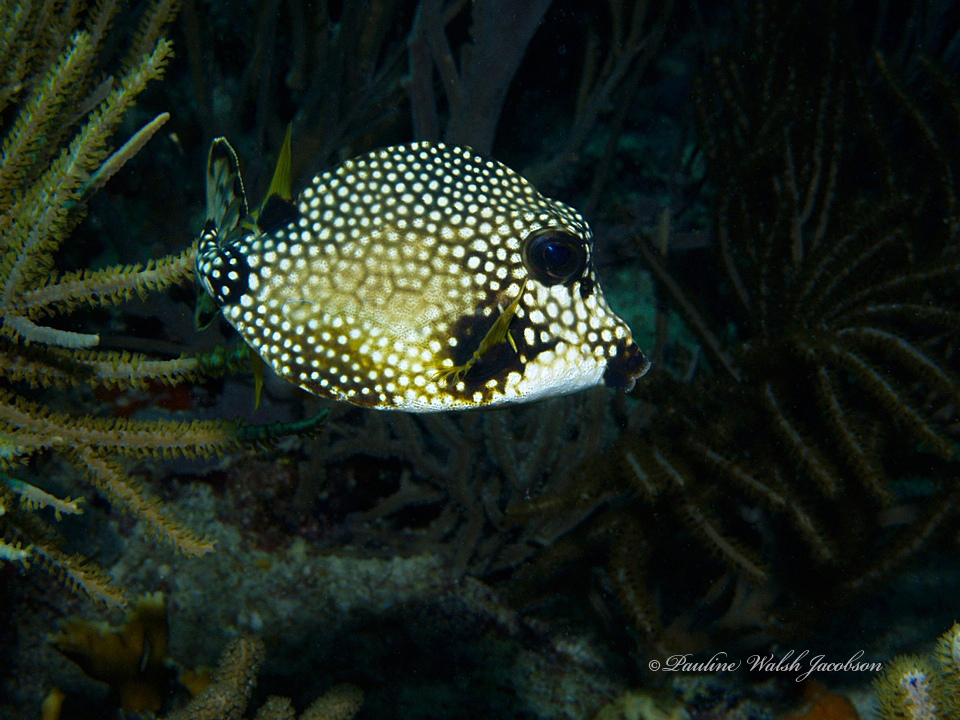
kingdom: Animalia
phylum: Chordata
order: Tetraodontiformes
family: Ostraciidae
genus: Lactophrys
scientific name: Lactophrys triqueter
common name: Smooth trunkfish
